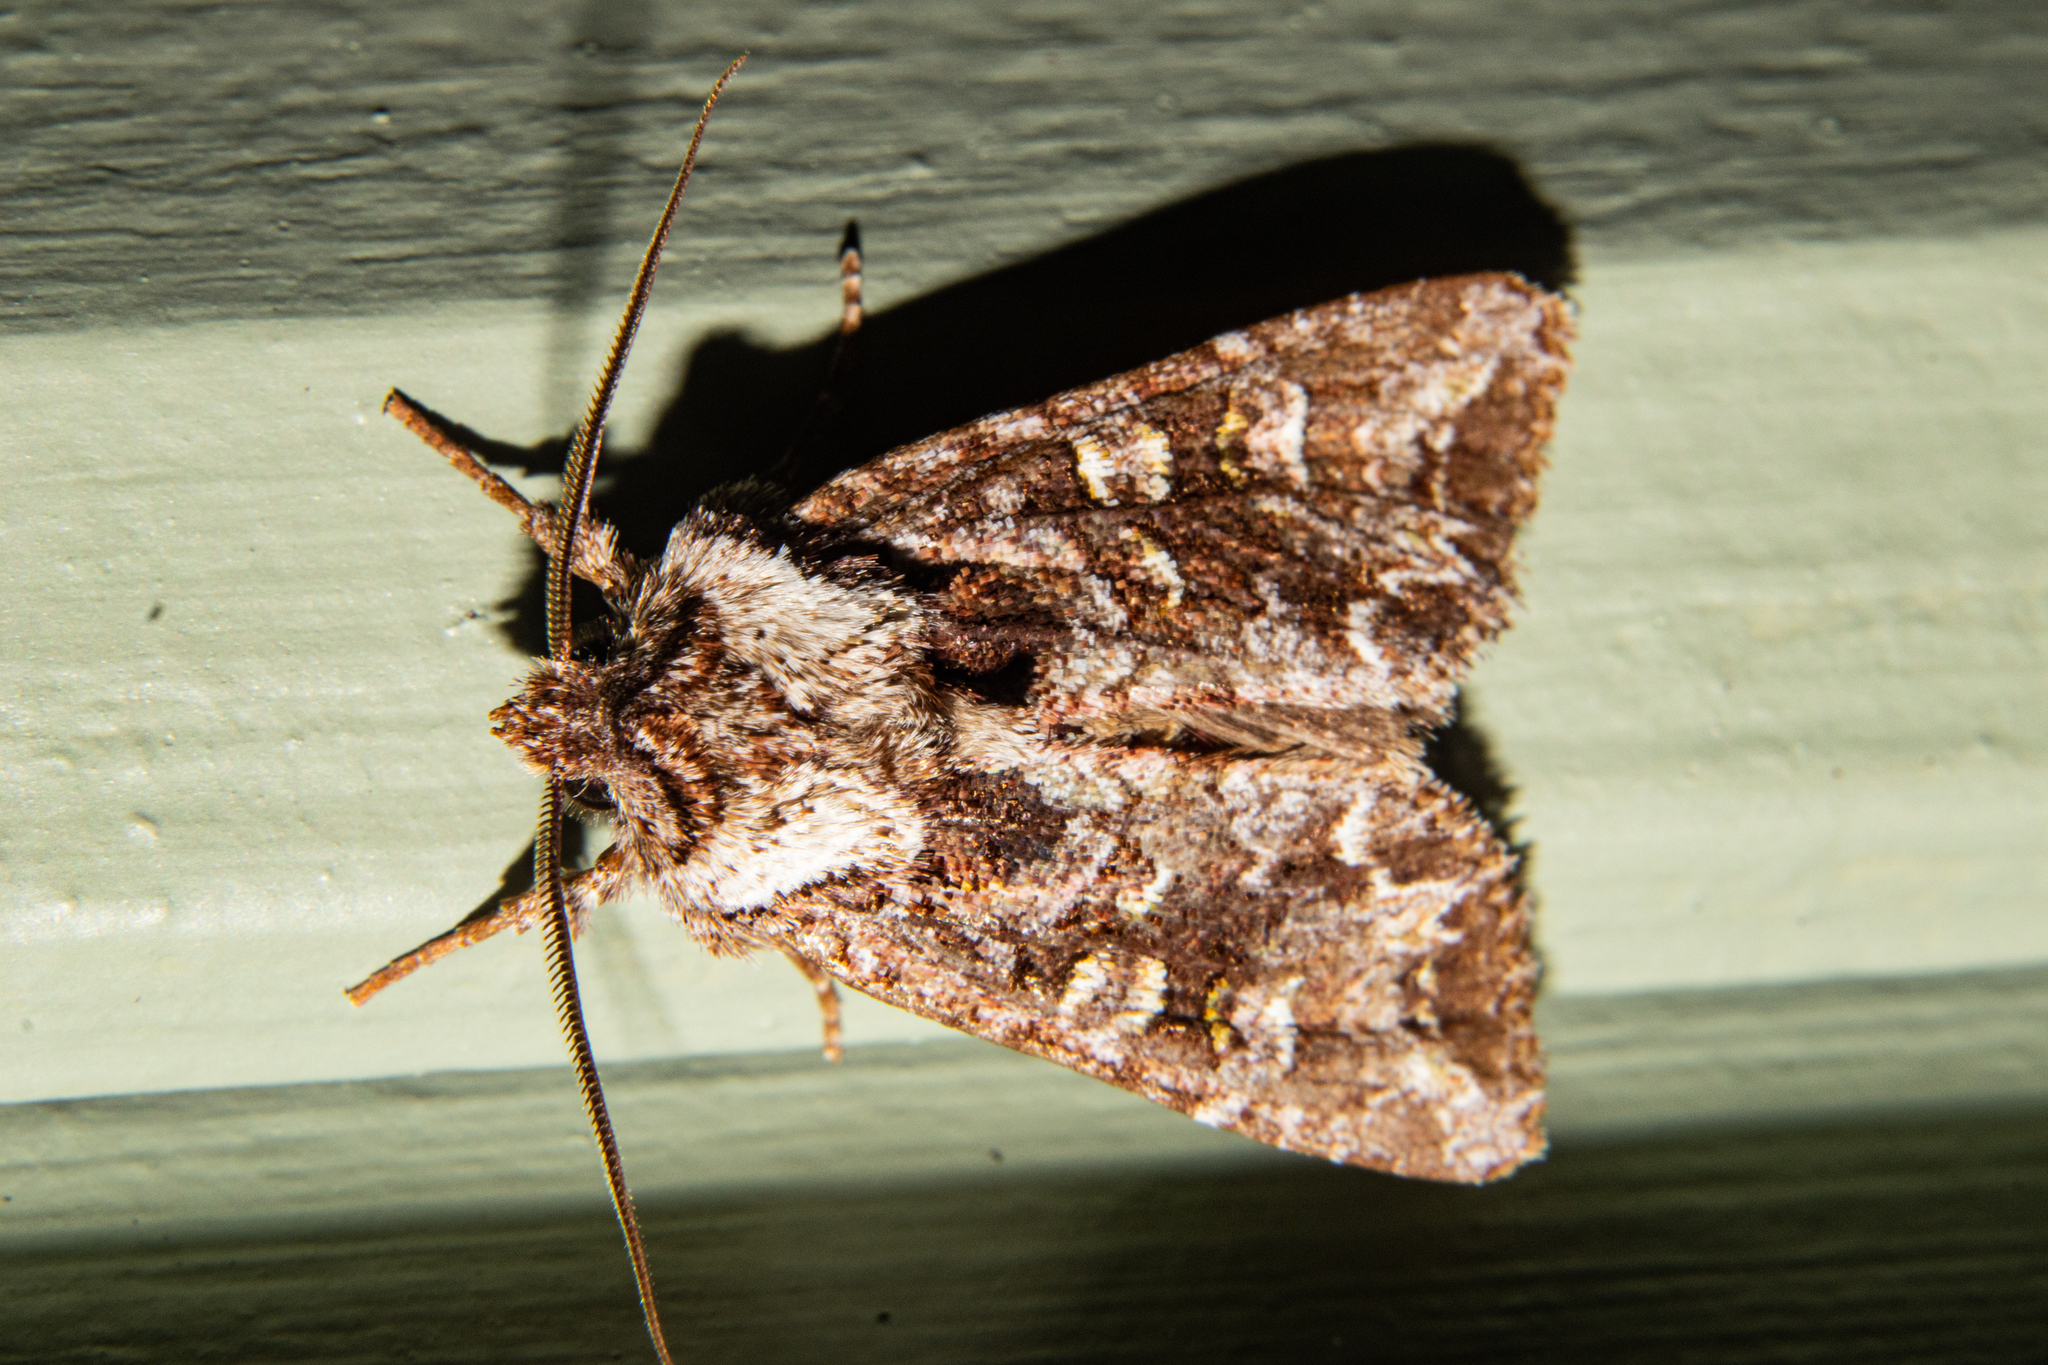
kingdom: Animalia
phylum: Arthropoda
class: Insecta
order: Lepidoptera
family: Noctuidae
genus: Ichneutica
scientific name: Ichneutica pelanodes
